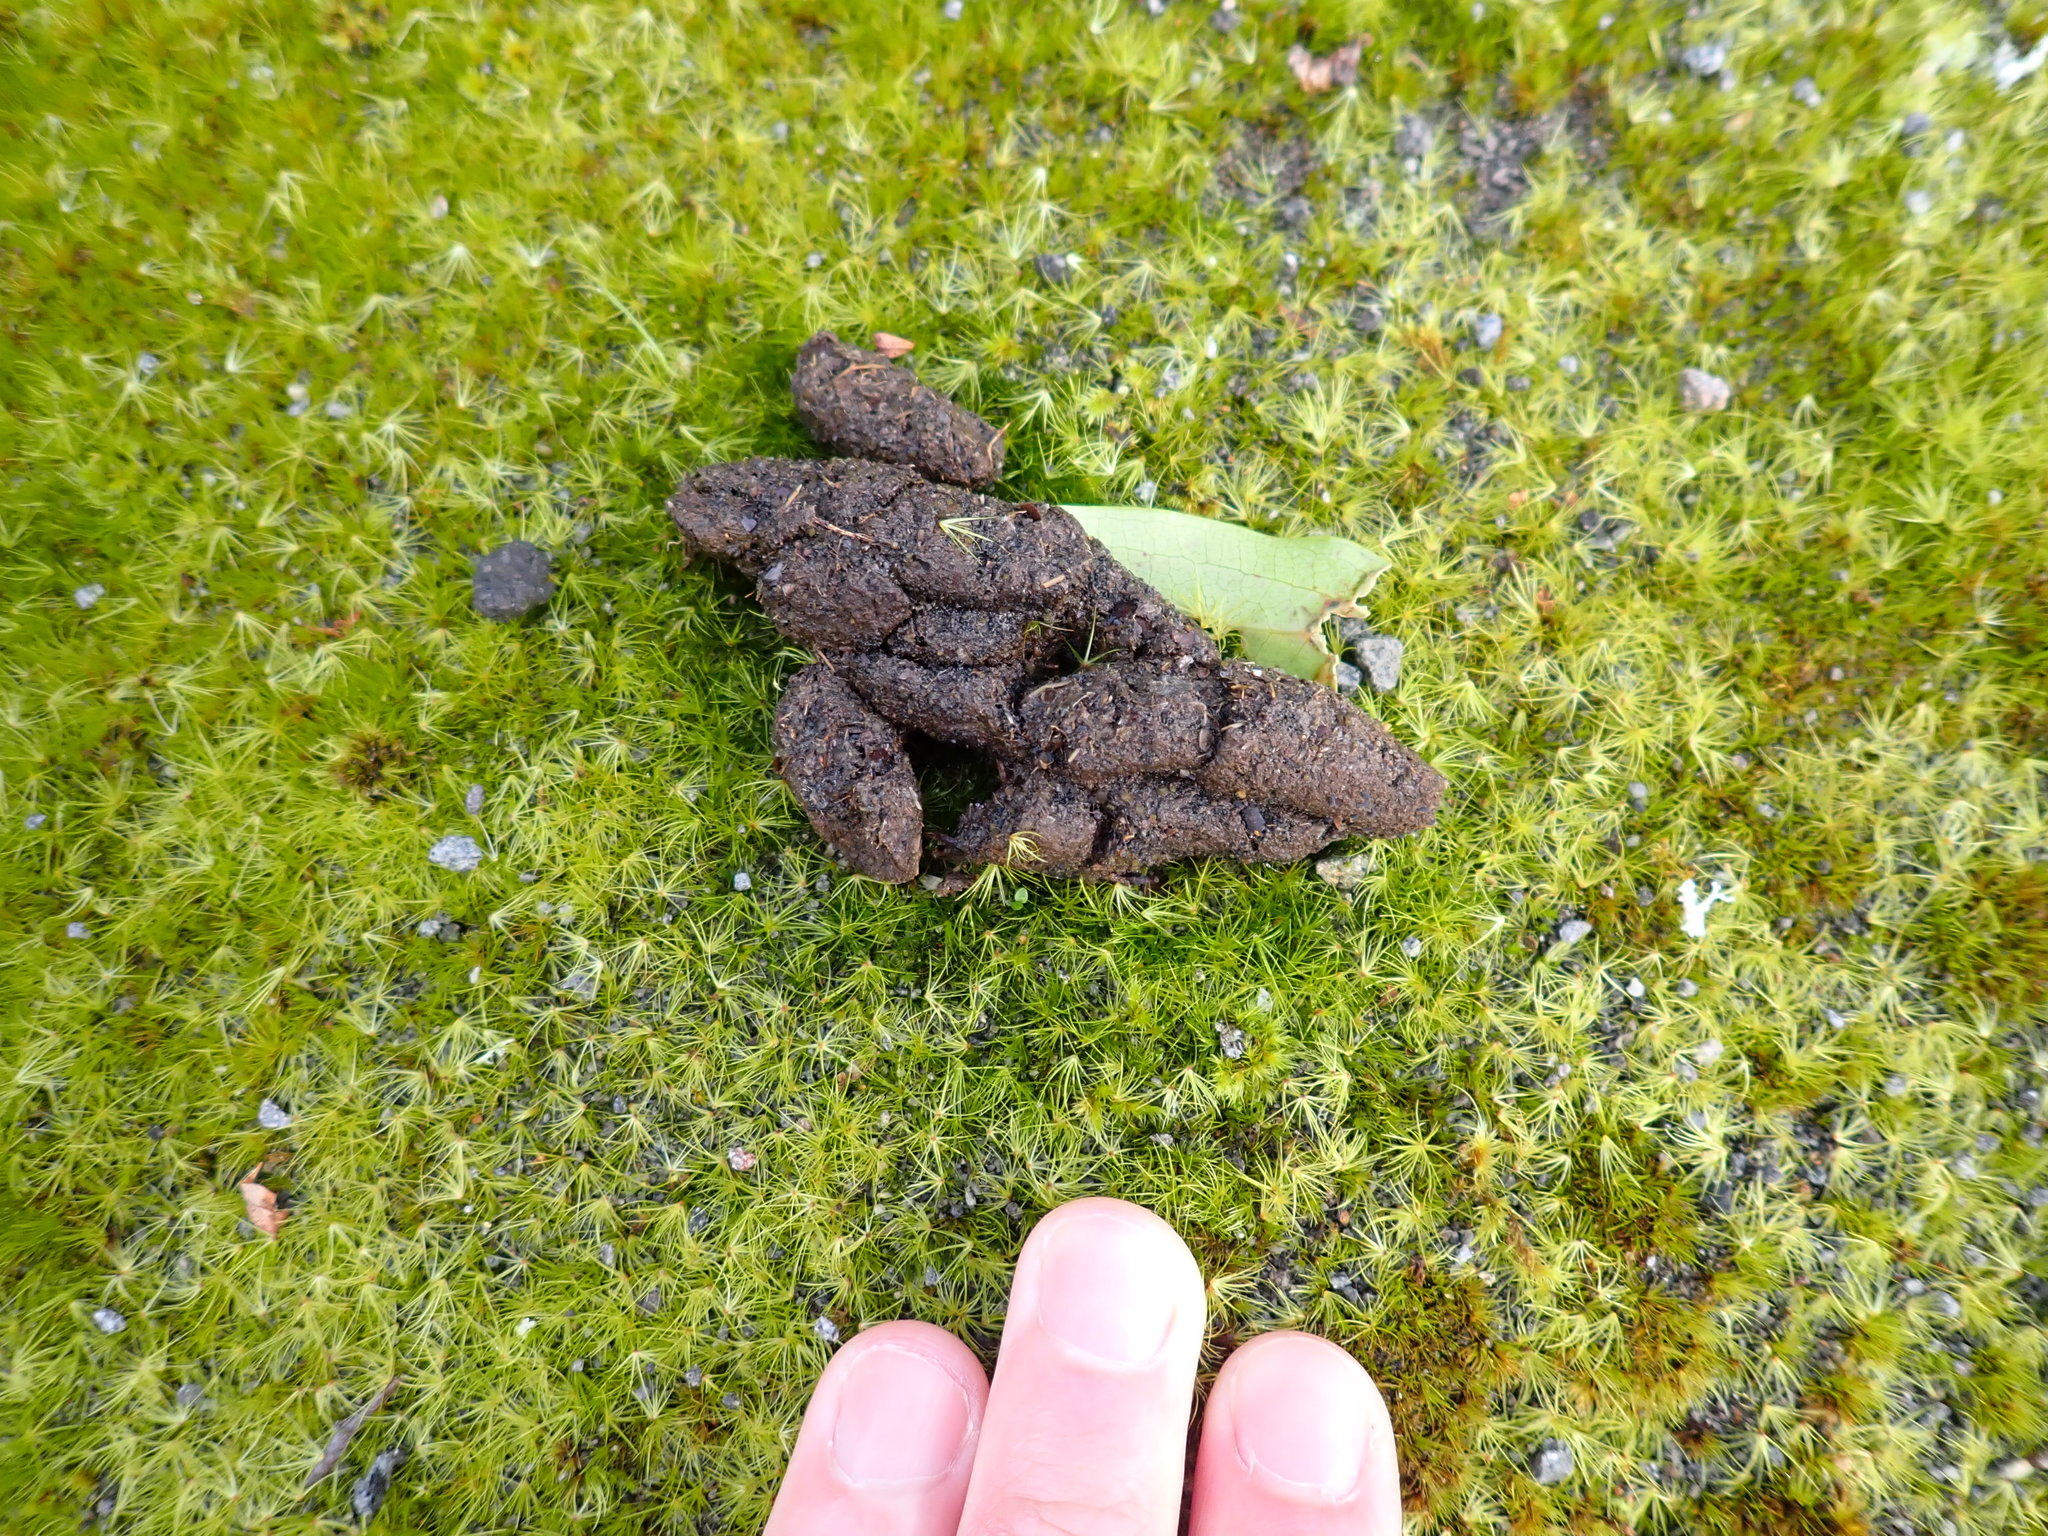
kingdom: Animalia
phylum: Chordata
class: Mammalia
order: Diprotodontia
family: Phalangeridae
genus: Trichosurus
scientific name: Trichosurus vulpecula
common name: Common brushtail
